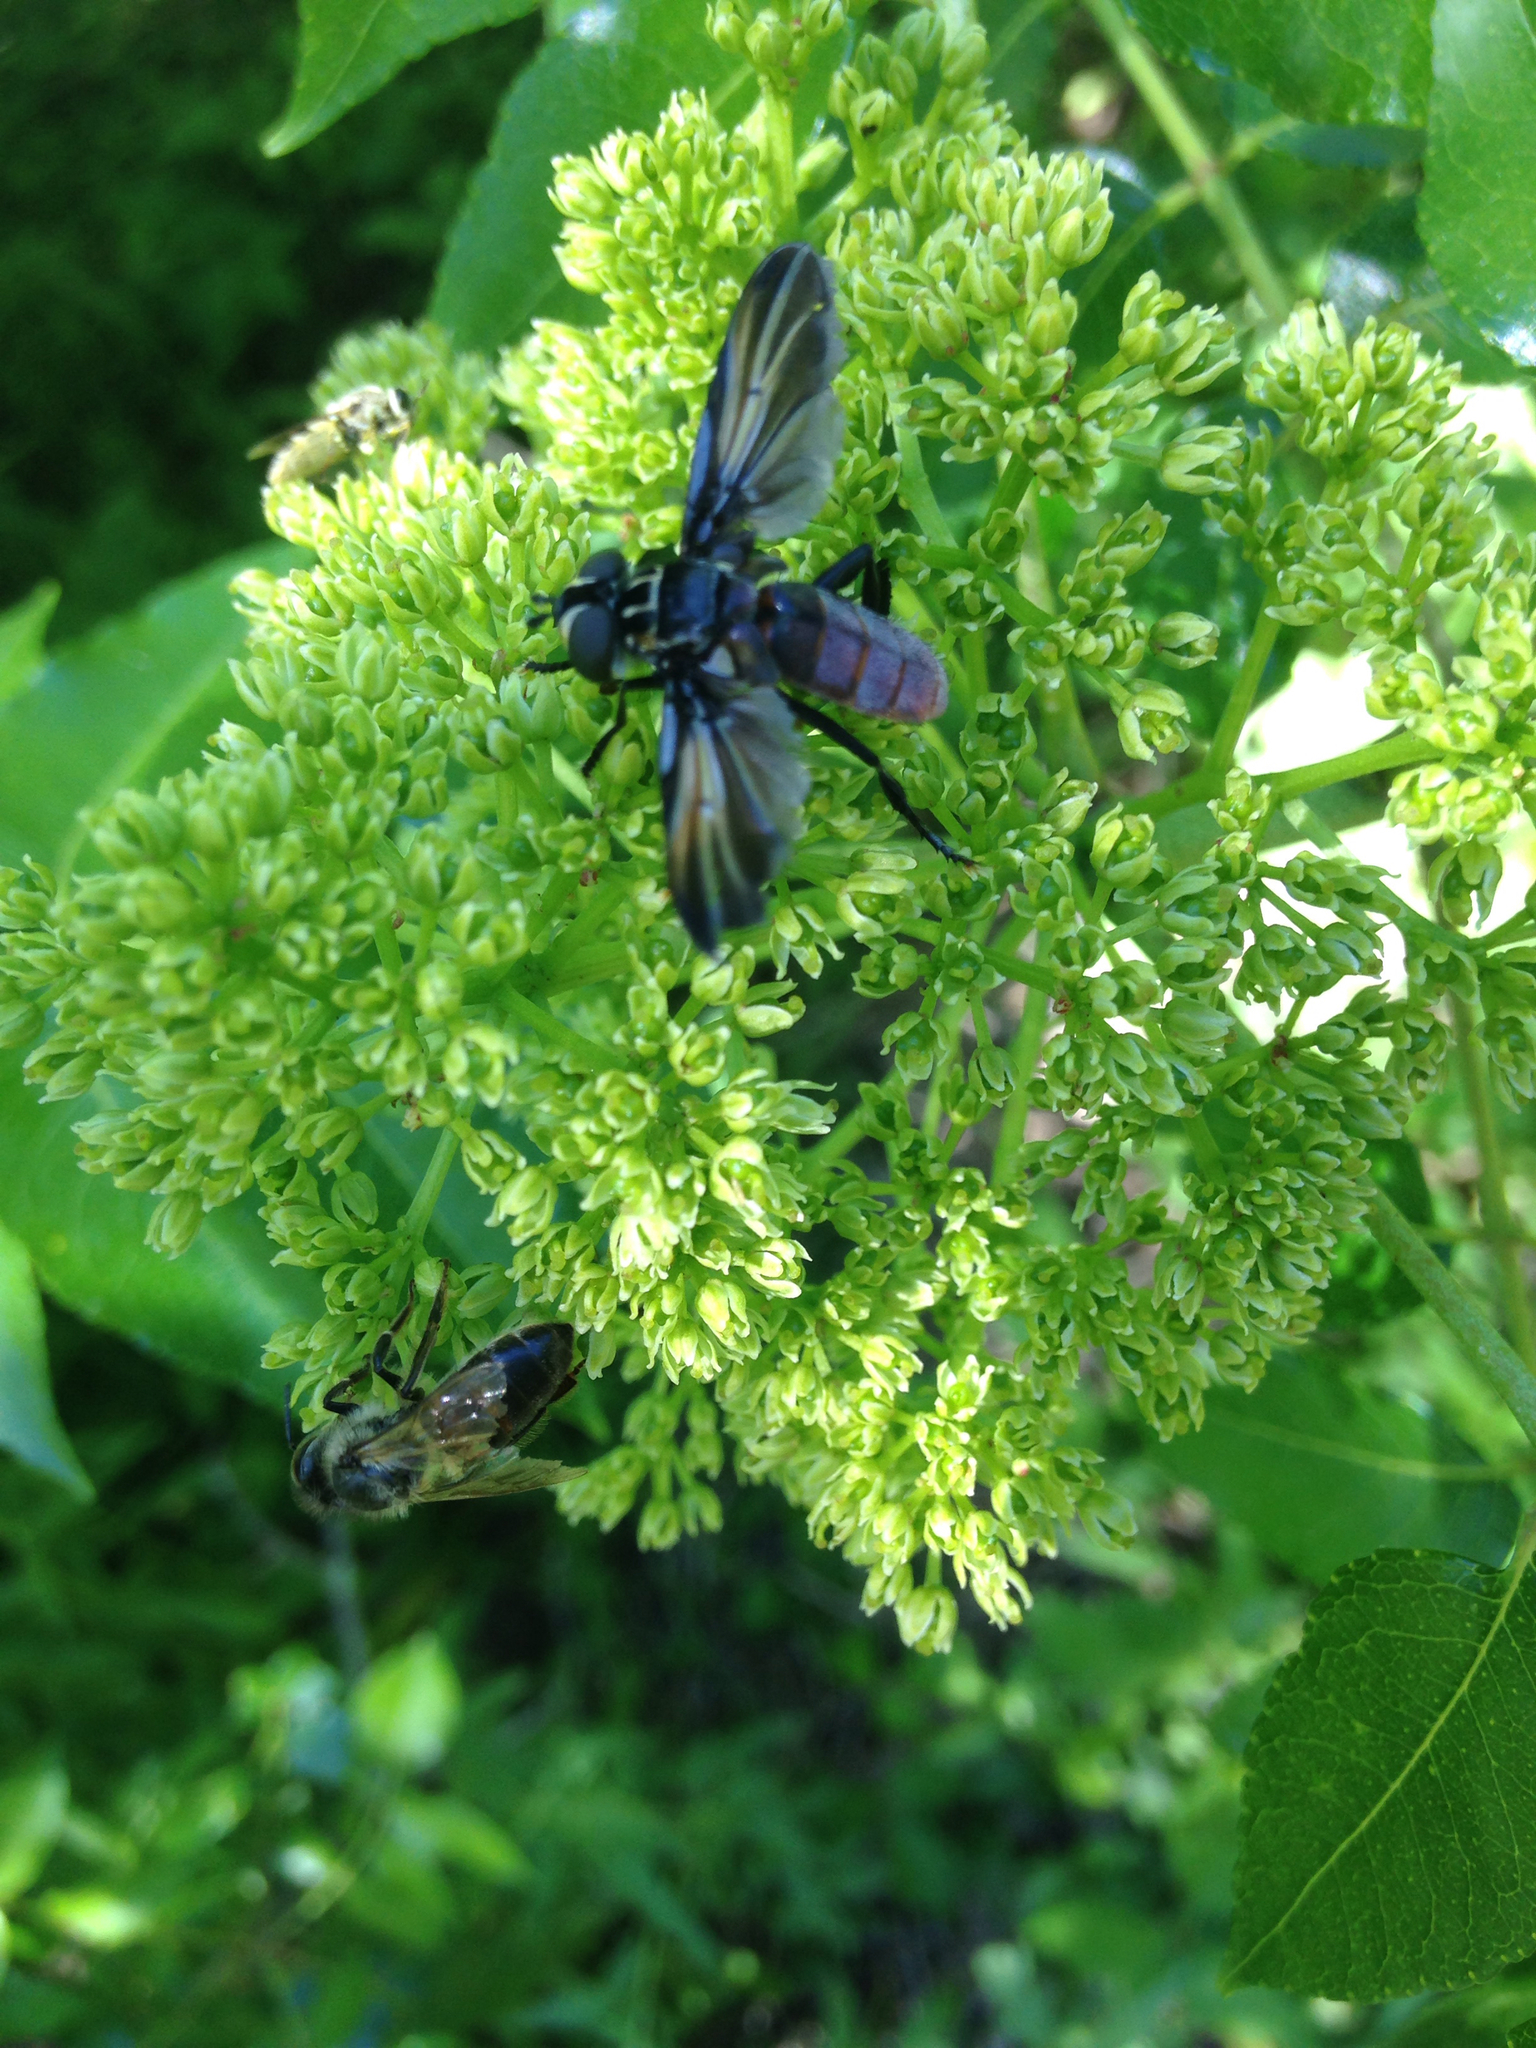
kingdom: Animalia
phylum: Arthropoda
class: Insecta
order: Diptera
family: Tachinidae
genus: Trichopoda
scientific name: Trichopoda lanipes
